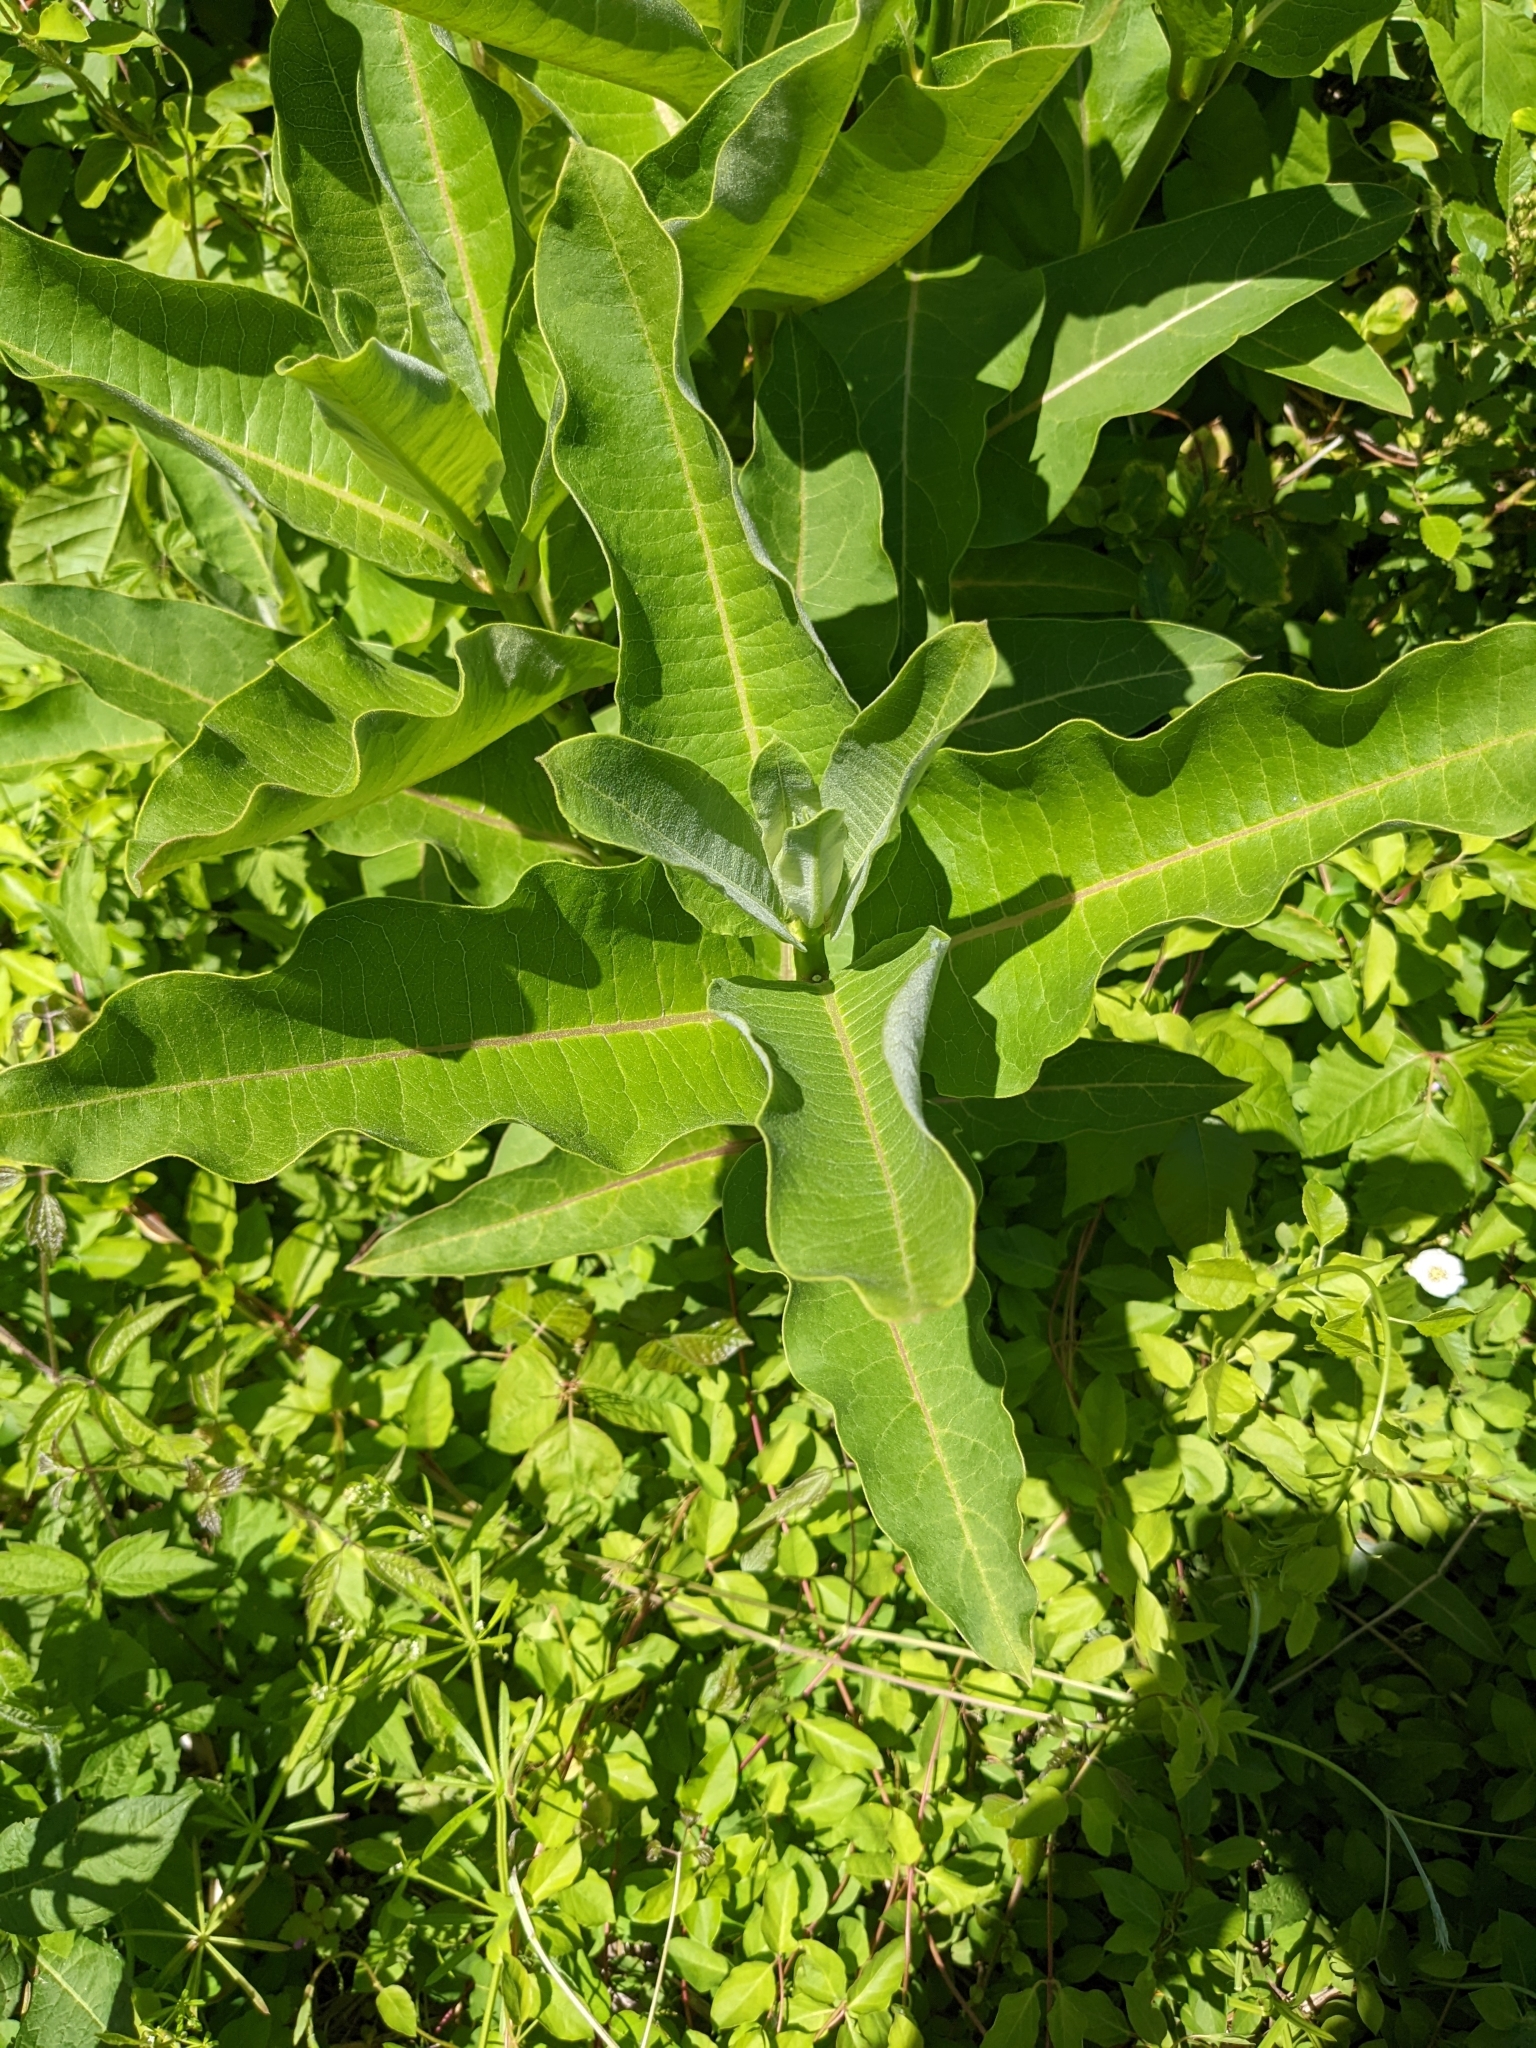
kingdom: Plantae
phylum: Tracheophyta
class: Magnoliopsida
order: Gentianales
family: Apocynaceae
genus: Asclepias
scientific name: Asclepias syriaca
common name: Common milkweed
